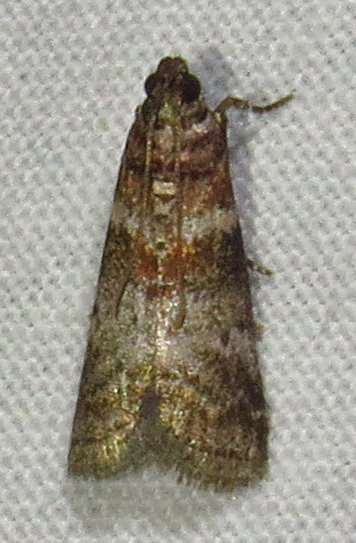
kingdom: Animalia
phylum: Arthropoda
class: Insecta
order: Lepidoptera
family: Pyralidae
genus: Sciota
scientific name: Sciota uvinella
